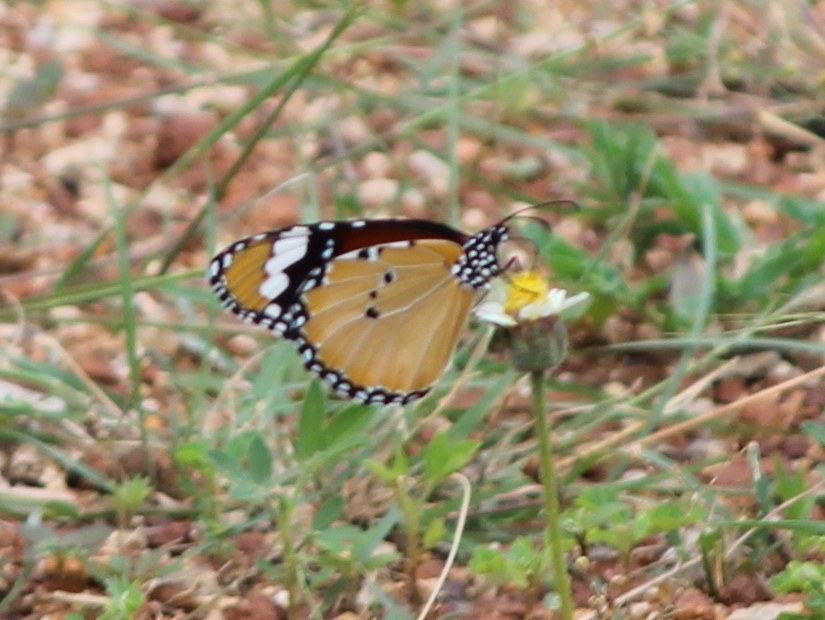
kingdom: Animalia
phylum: Arthropoda
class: Insecta
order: Lepidoptera
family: Nymphalidae
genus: Danaus
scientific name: Danaus chrysippus
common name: Plain tiger
